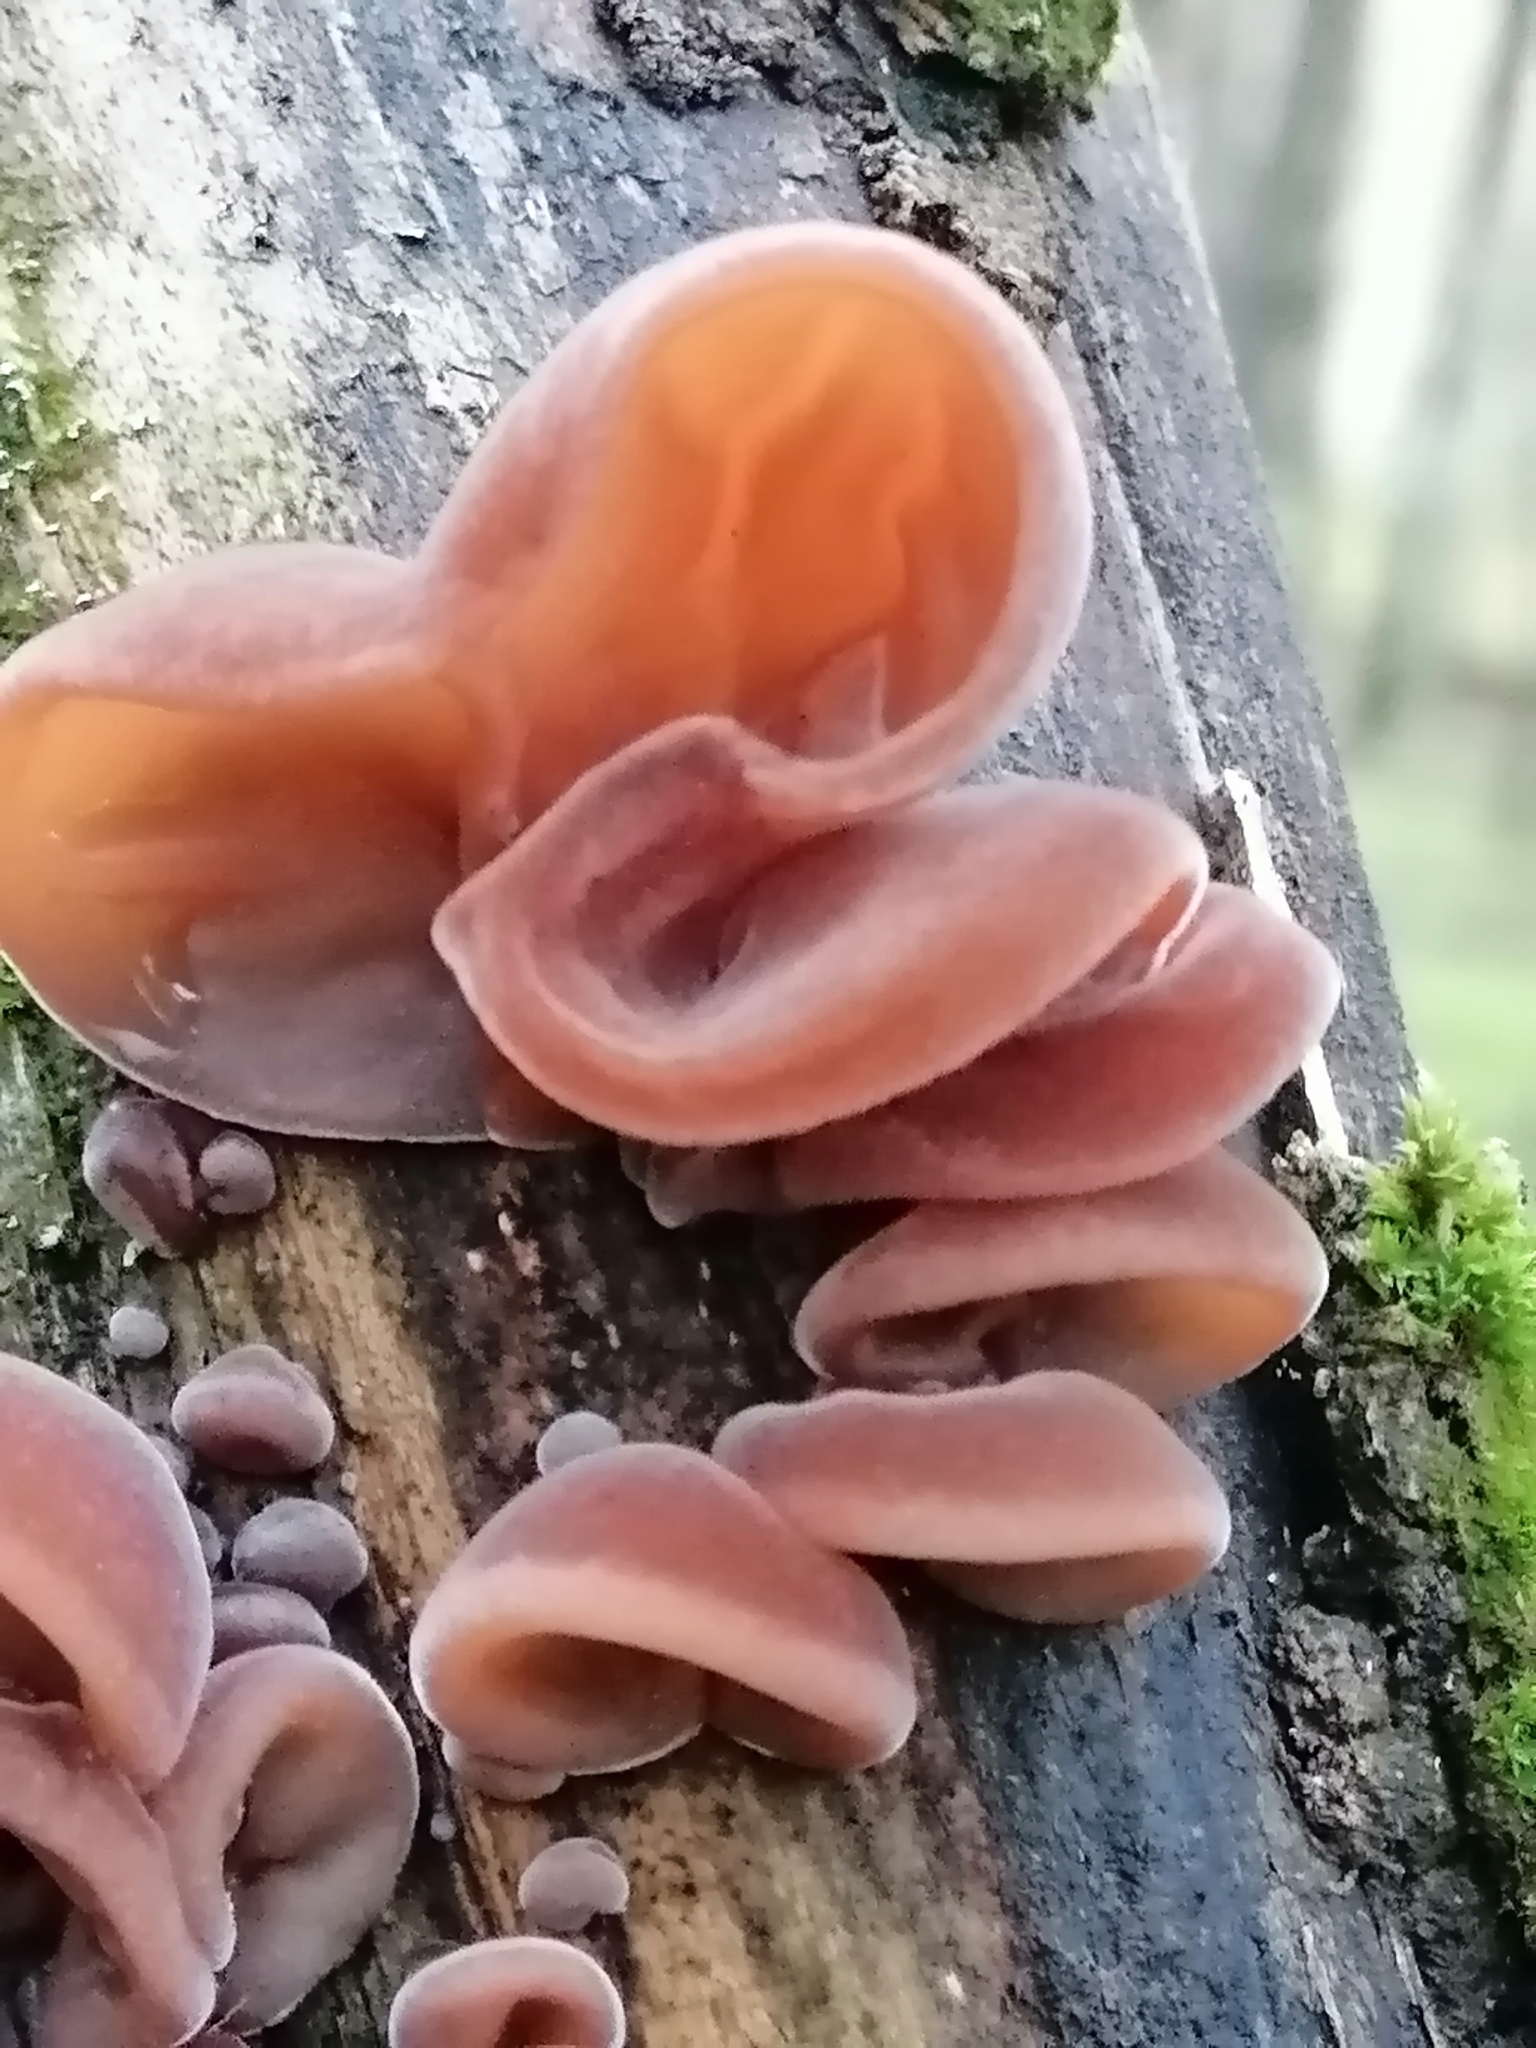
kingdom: Fungi
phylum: Basidiomycota
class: Agaricomycetes
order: Auriculariales
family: Auriculariaceae
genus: Auricularia
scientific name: Auricularia auricula-judae
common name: Jelly ear
